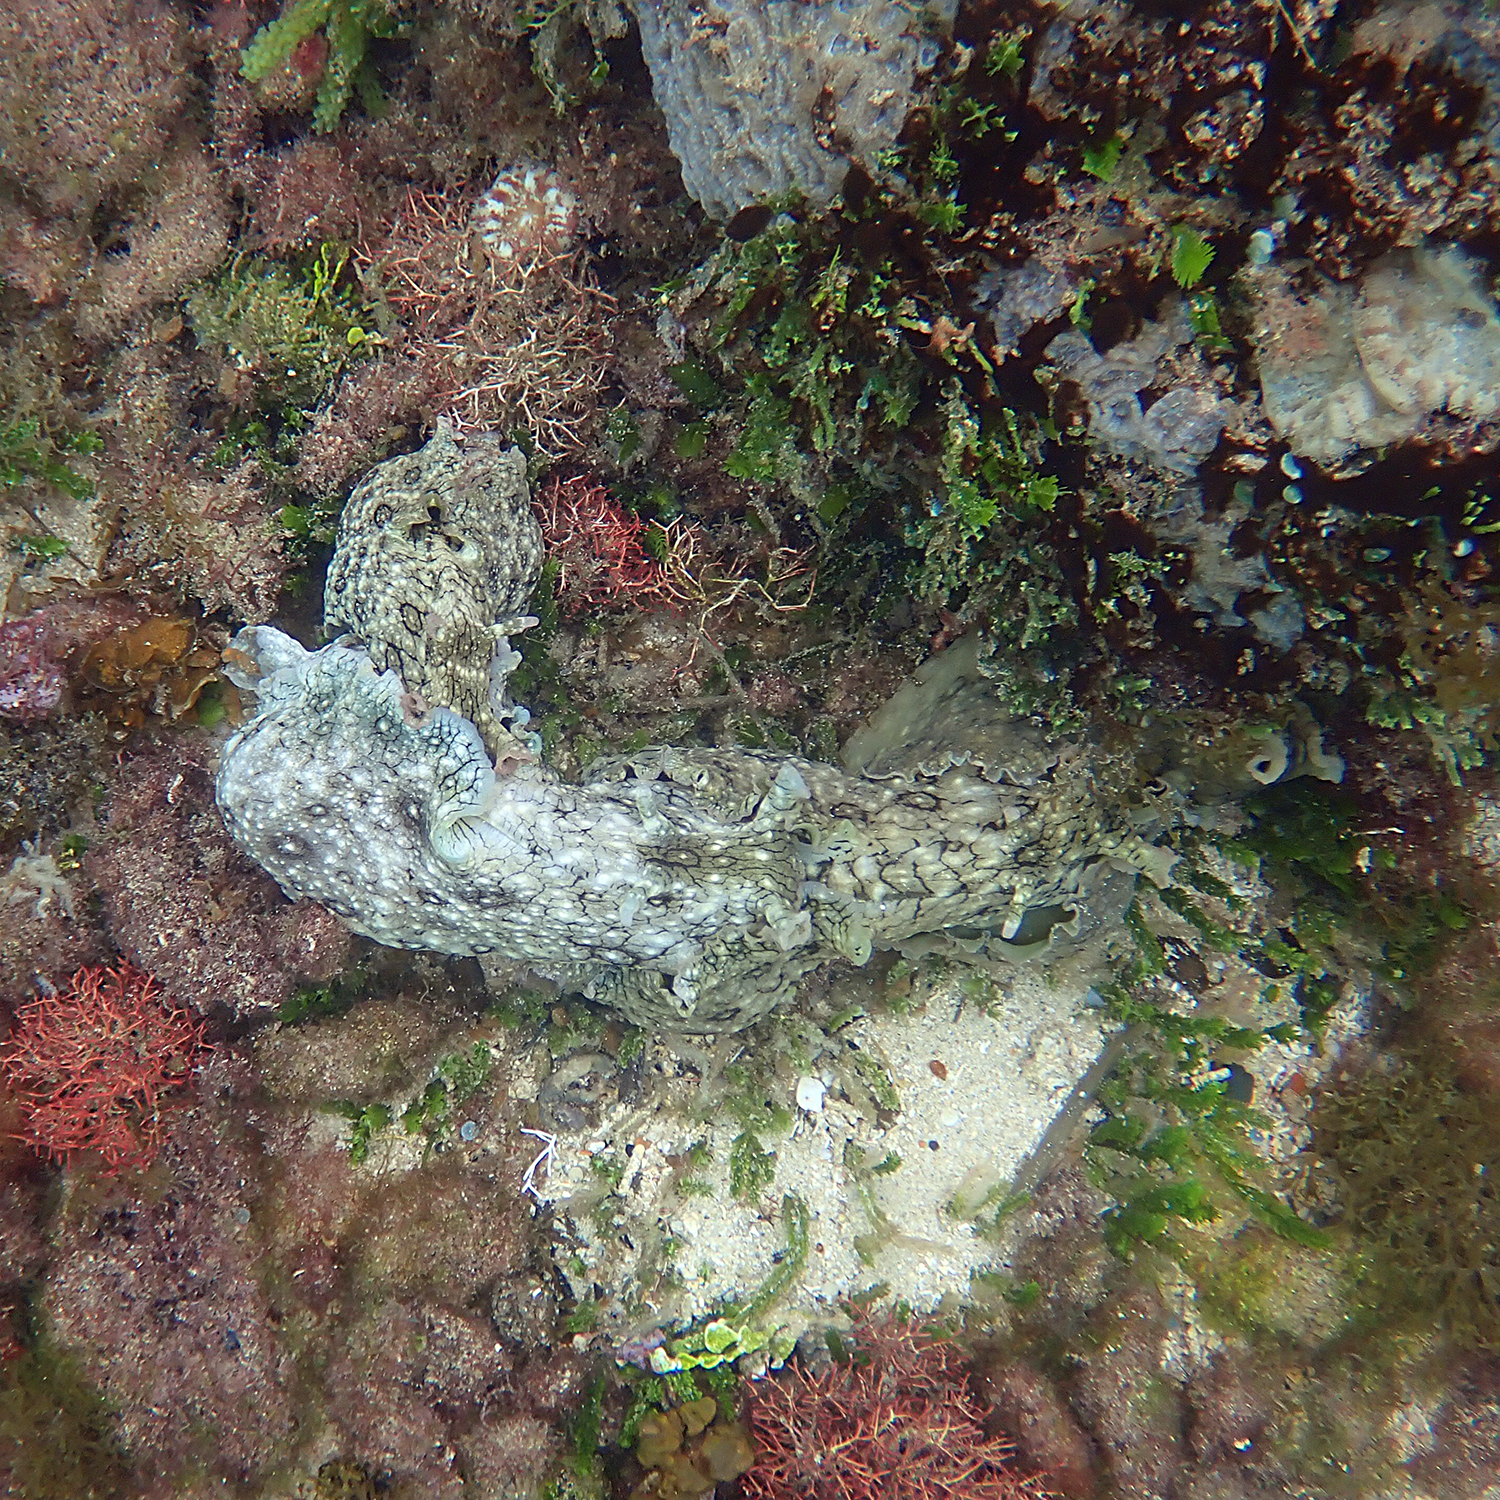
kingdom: Animalia
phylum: Mollusca
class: Gastropoda
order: Aplysiida
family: Aplysiidae
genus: Aplysia
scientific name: Aplysia argus
